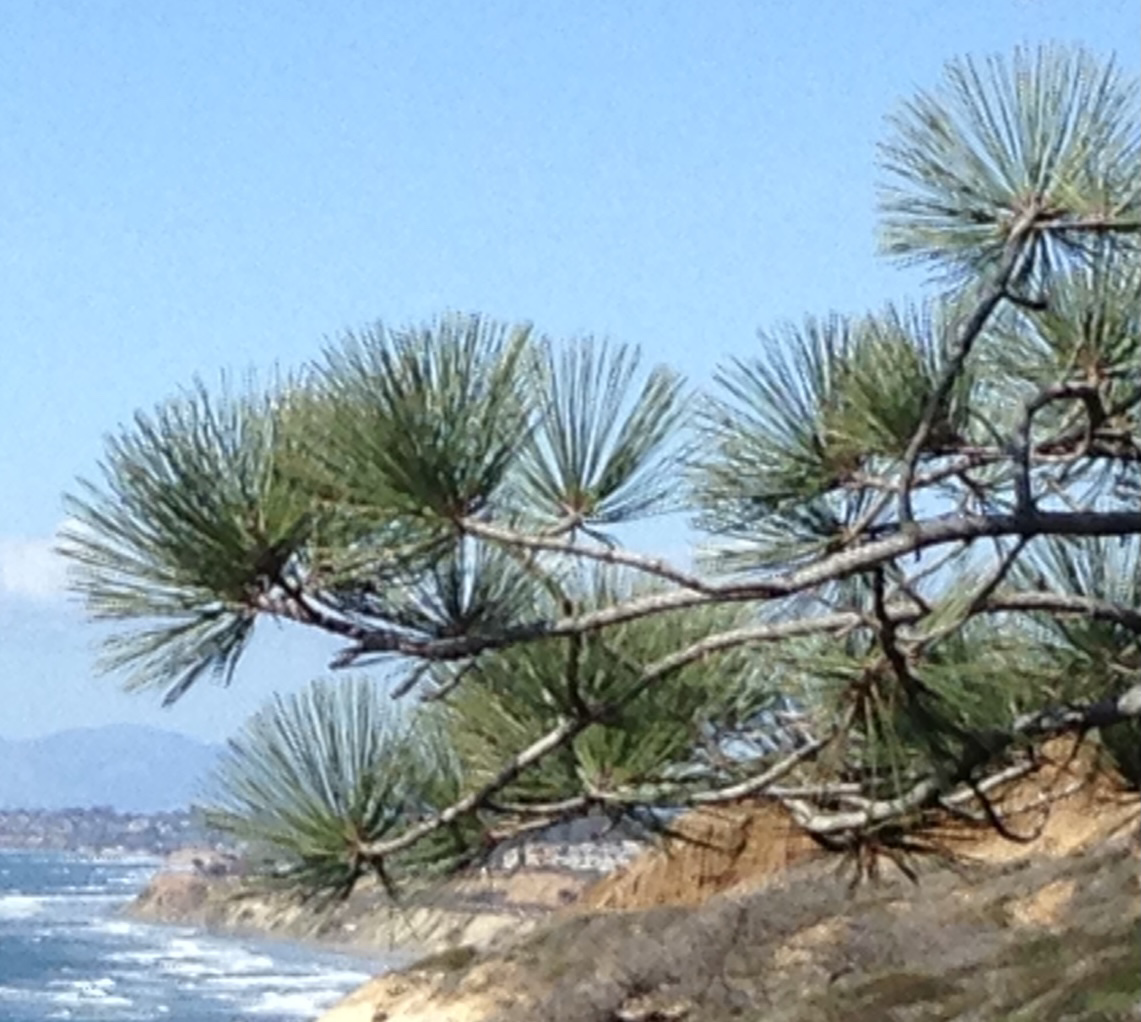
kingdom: Plantae
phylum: Tracheophyta
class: Pinopsida
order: Pinales
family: Pinaceae
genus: Pinus
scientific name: Pinus torreyana
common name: Torrey pine
